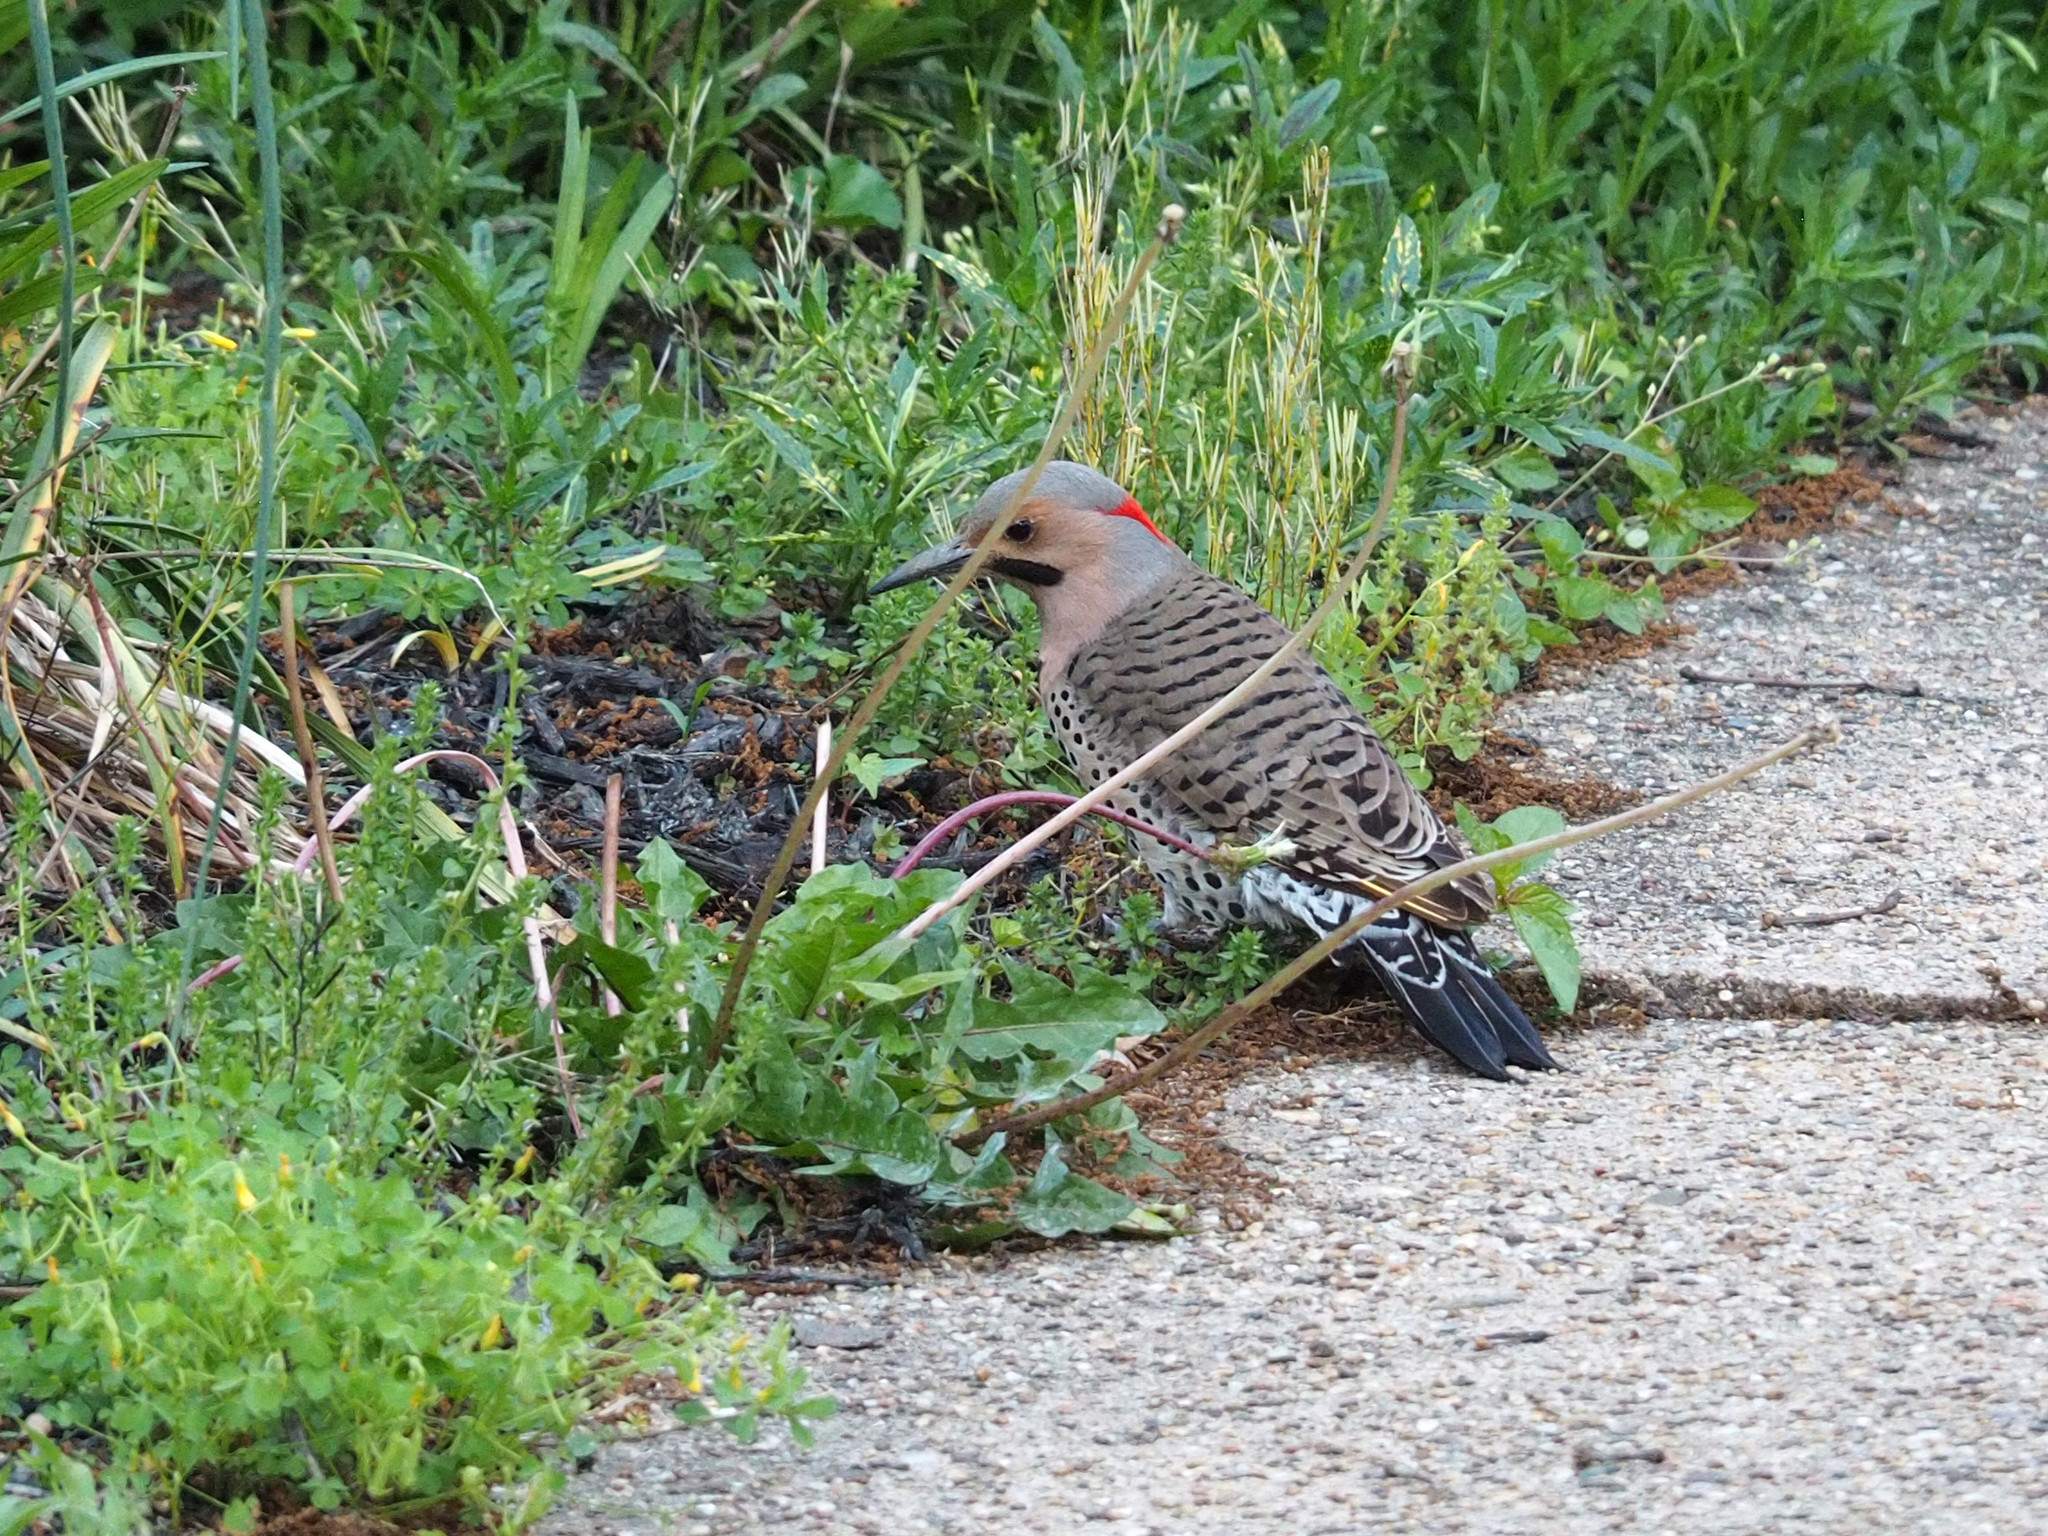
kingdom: Animalia
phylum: Chordata
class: Aves
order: Piciformes
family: Picidae
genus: Colaptes
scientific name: Colaptes auratus
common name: Northern flicker
